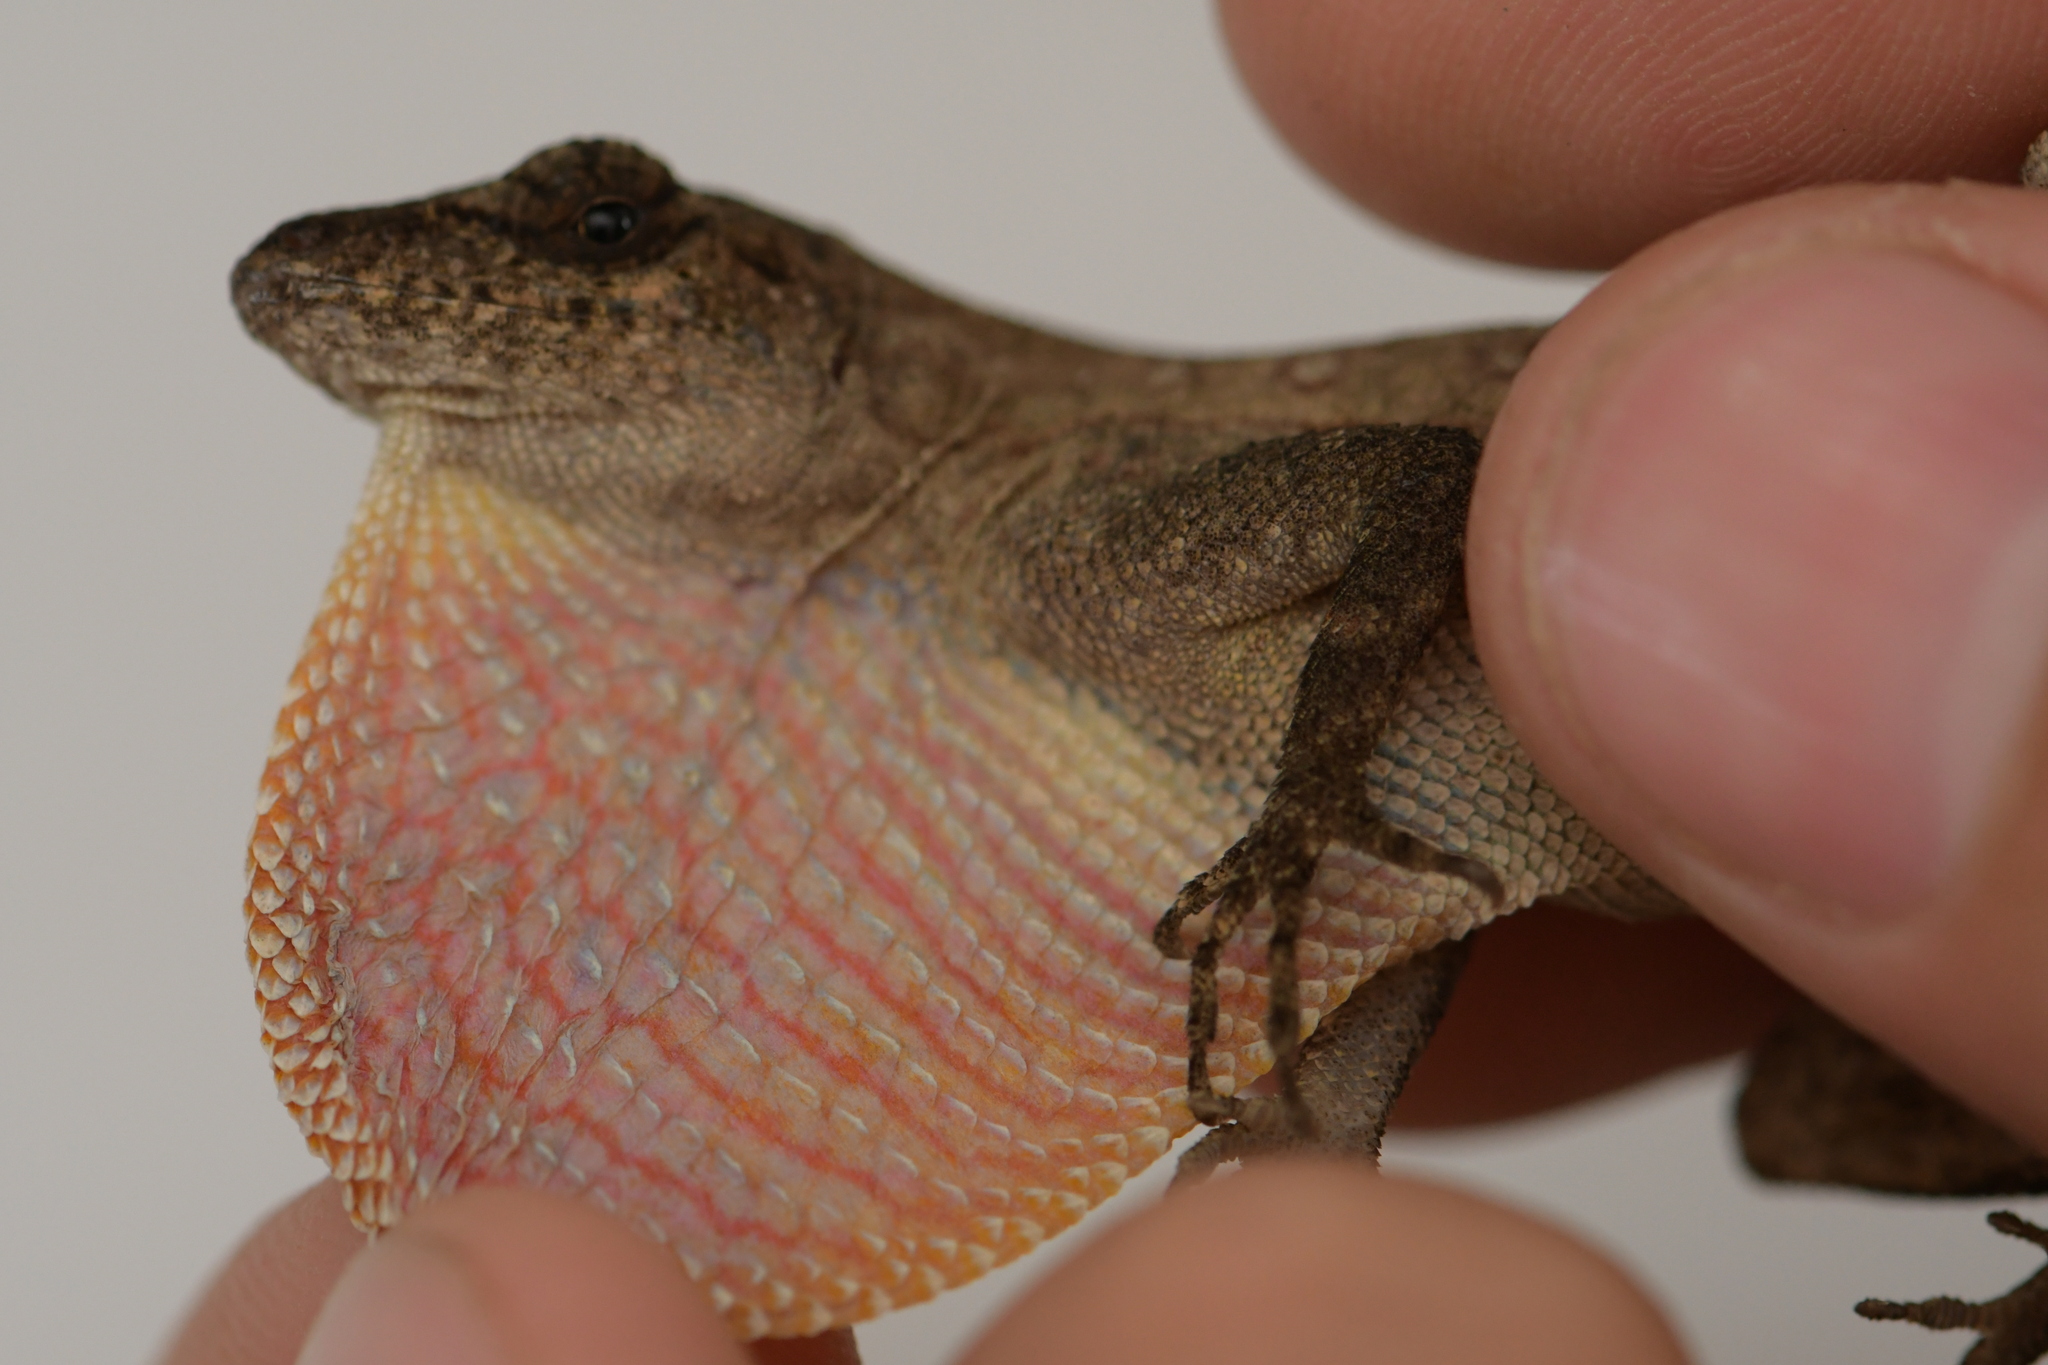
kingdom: Animalia
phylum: Chordata
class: Squamata
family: Dactyloidae
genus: Anolis
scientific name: Anolis subocularis
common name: Pacific anole
